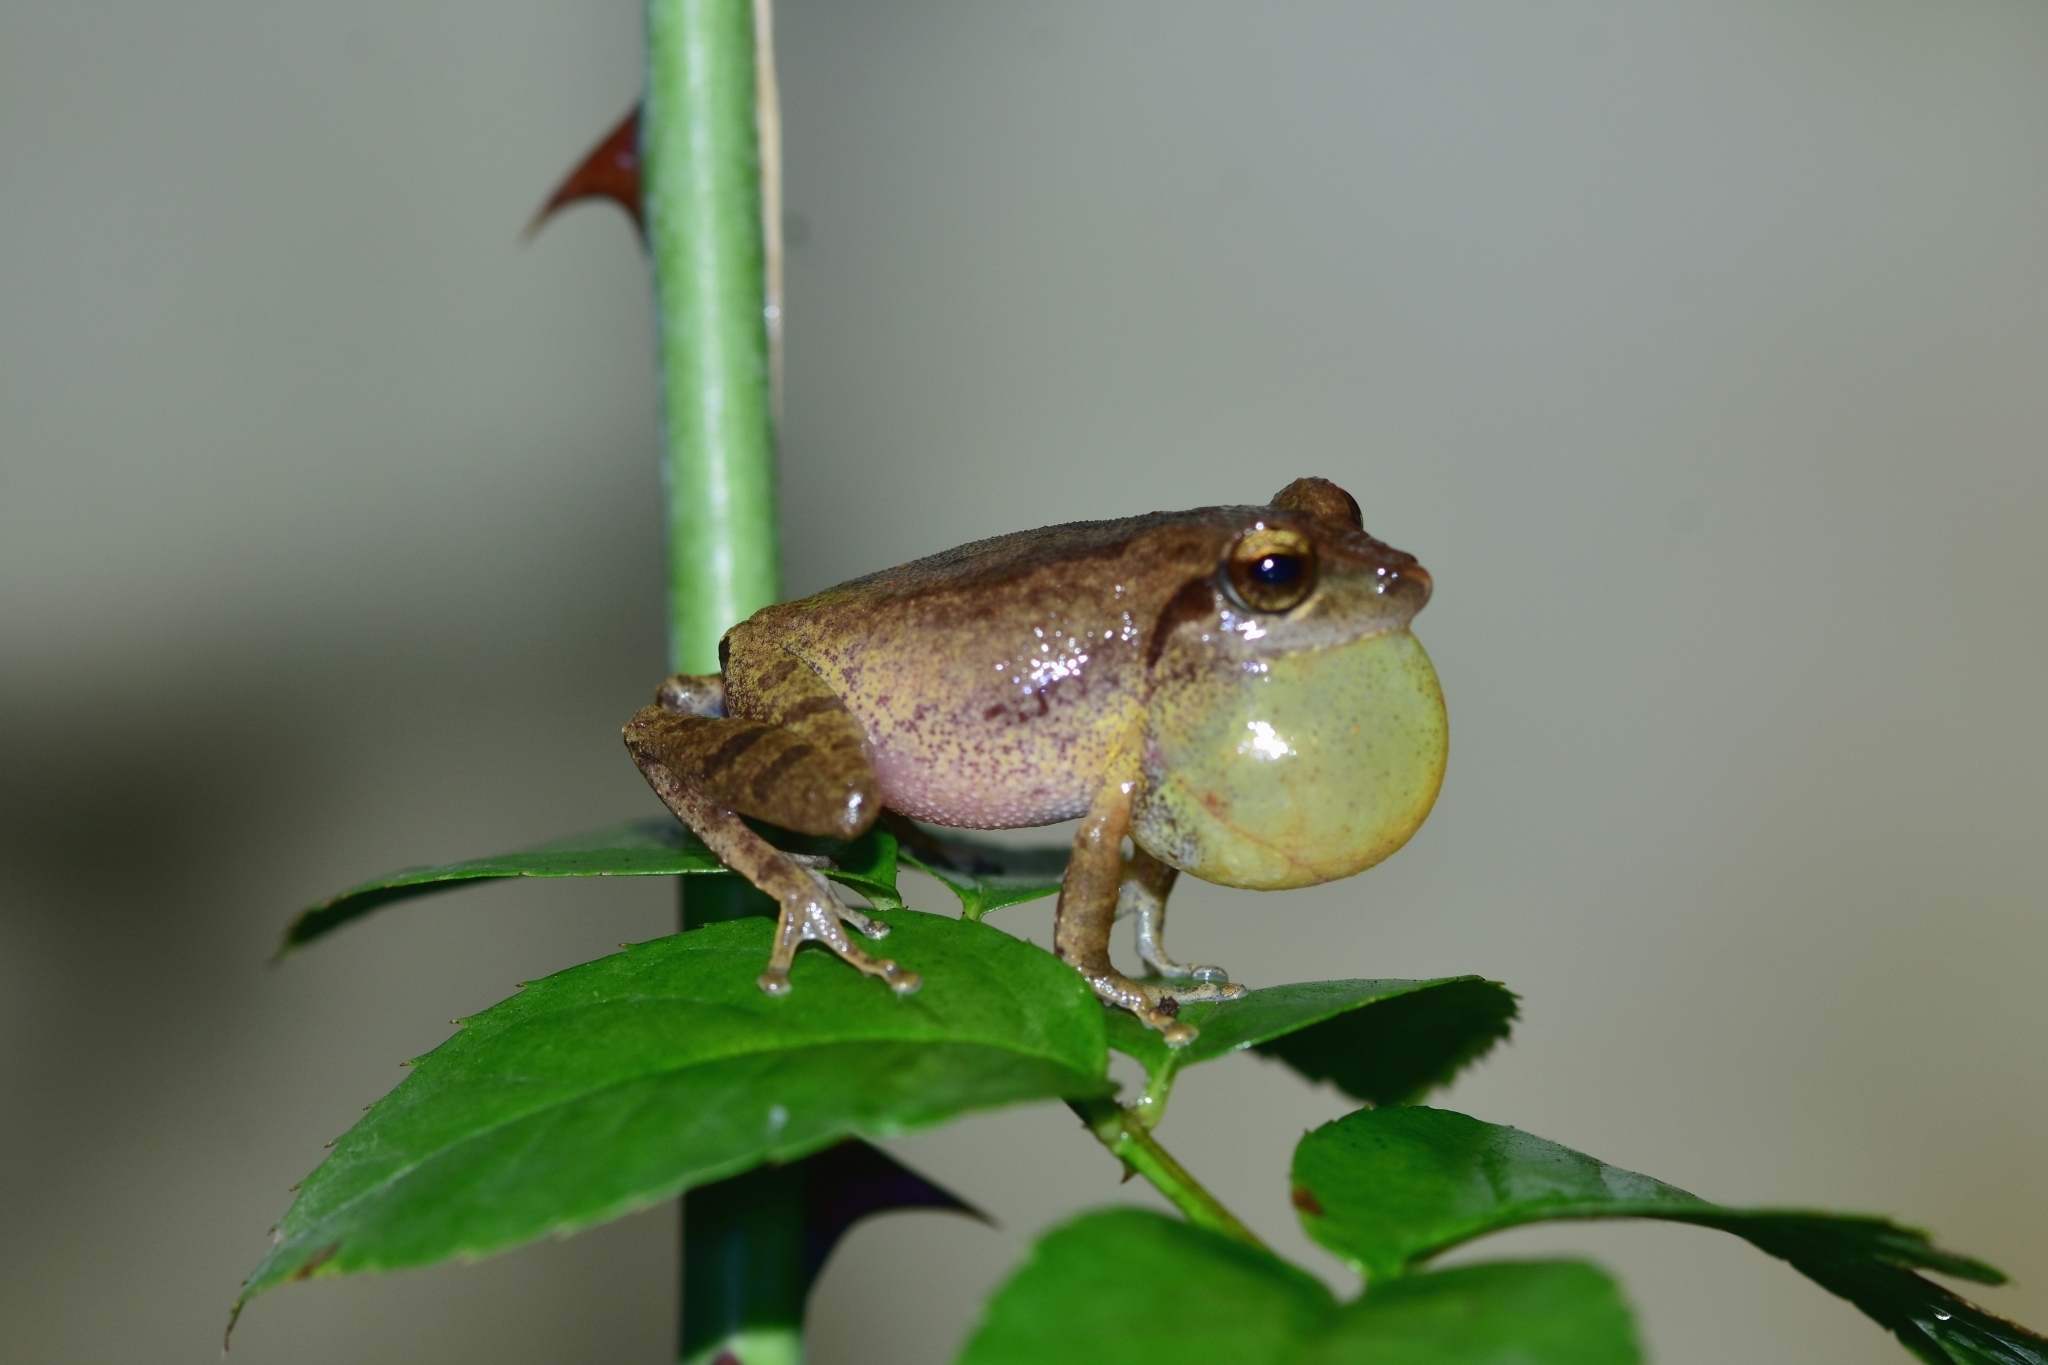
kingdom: Animalia
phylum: Chordata
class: Amphibia
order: Anura
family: Rhacophoridae
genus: Pseudophilautus
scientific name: Pseudophilautus wynaadensis
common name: Dark-eared bush frog
